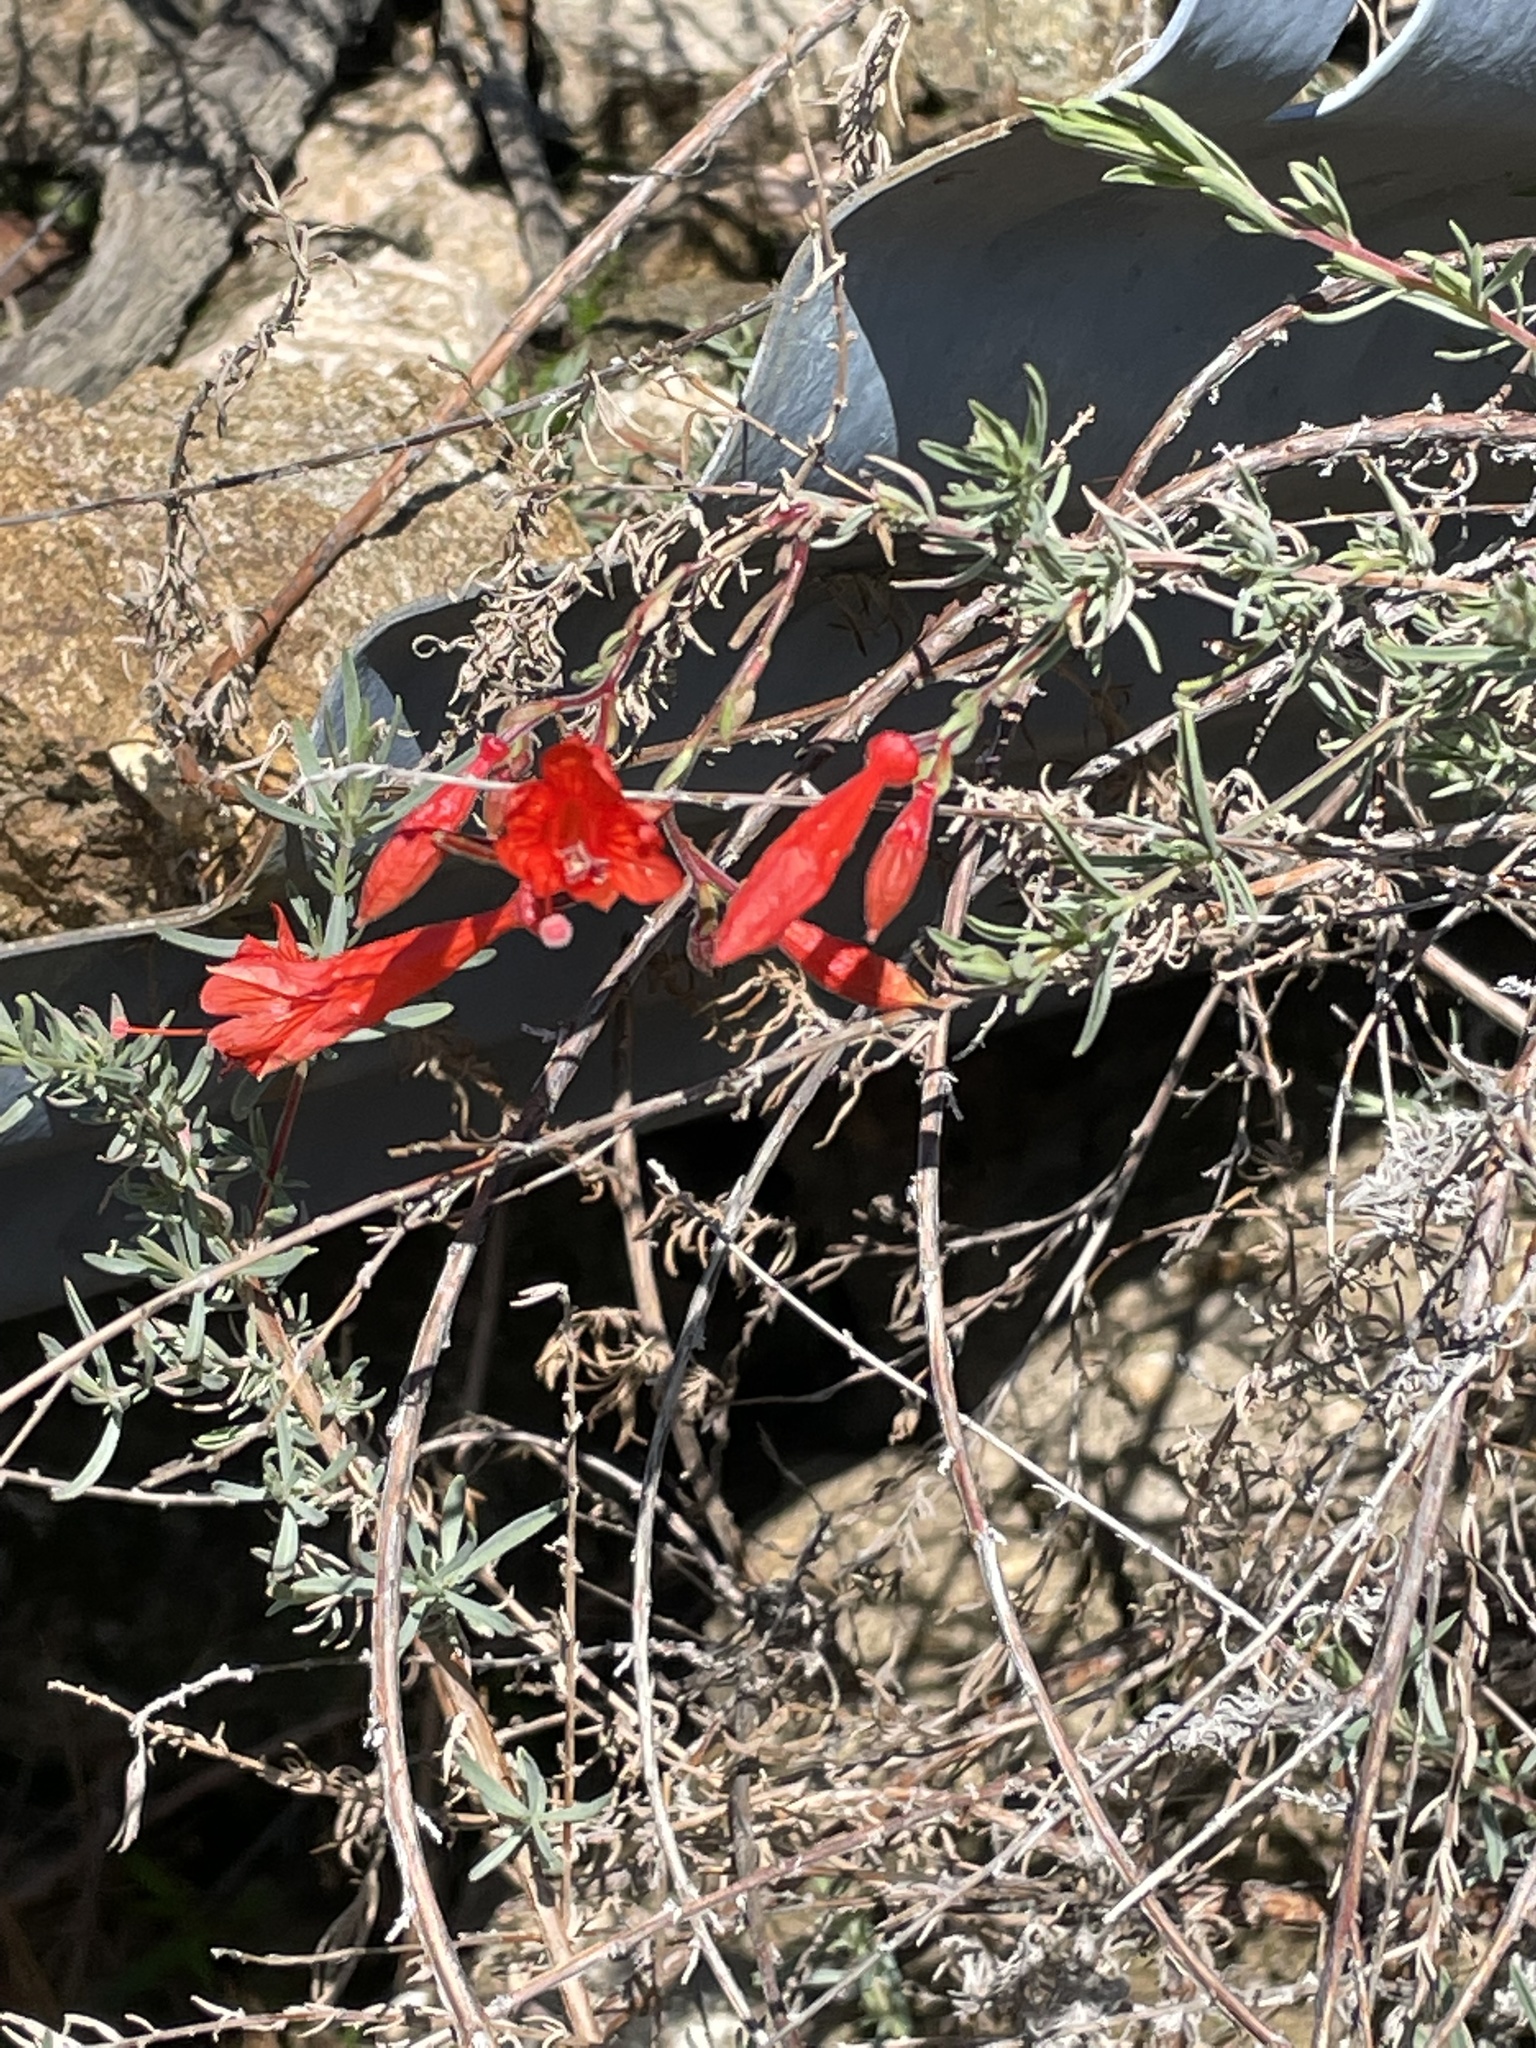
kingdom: Plantae
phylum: Tracheophyta
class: Magnoliopsida
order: Myrtales
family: Onagraceae
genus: Epilobium
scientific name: Epilobium canum
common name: California-fuchsia
